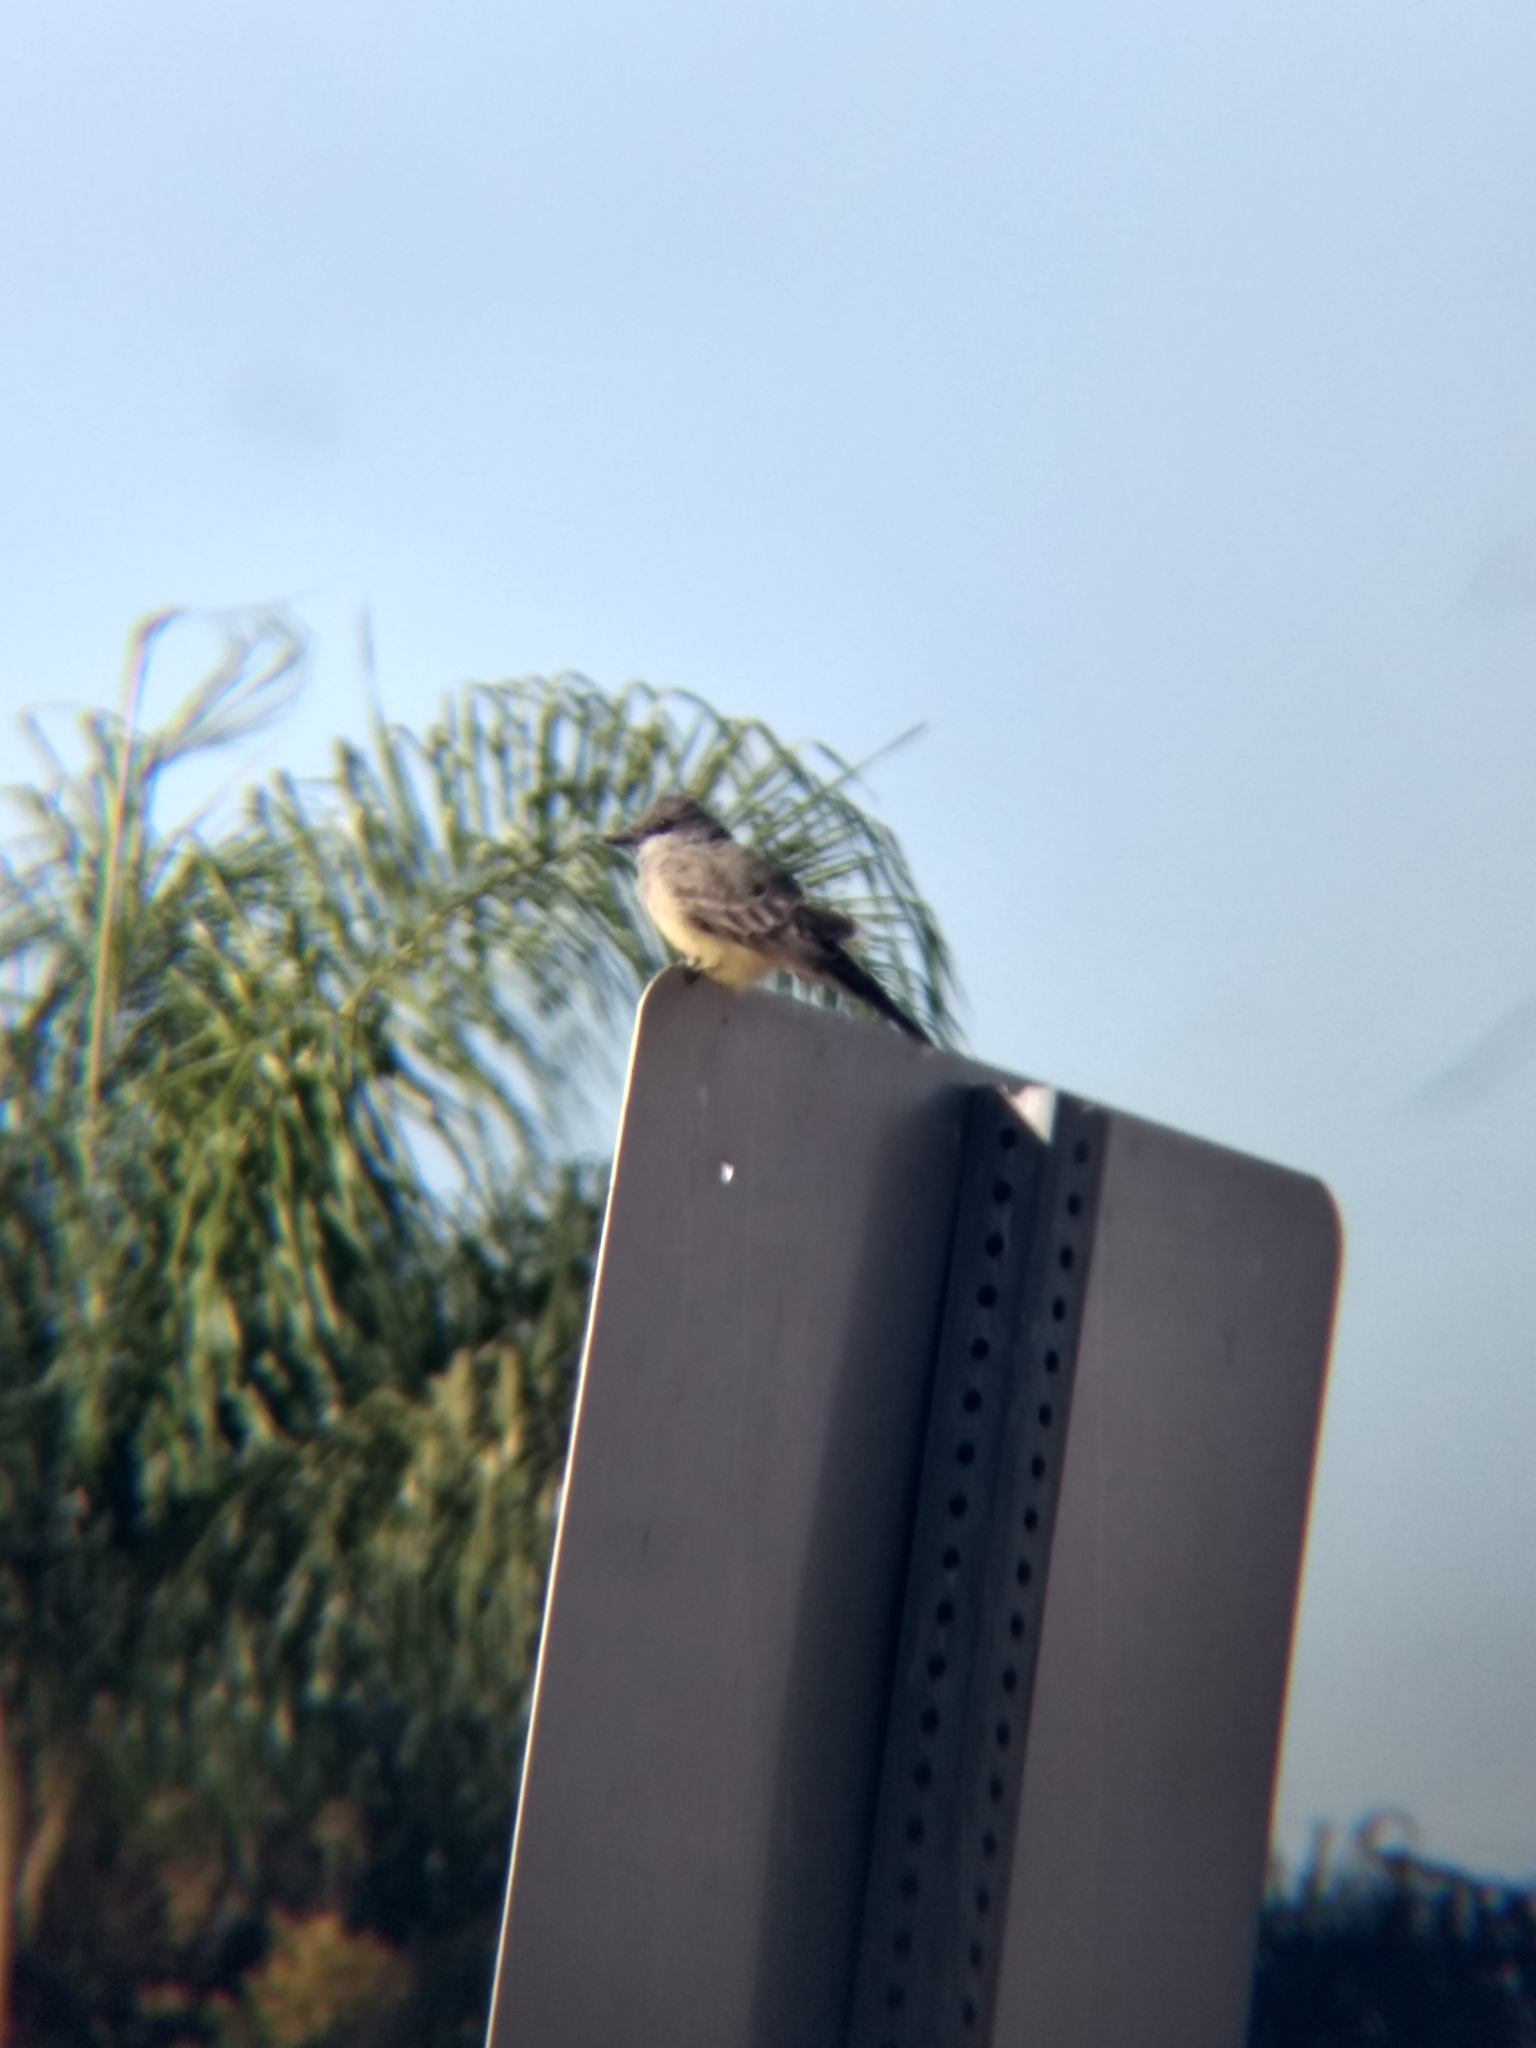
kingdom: Animalia
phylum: Chordata
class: Aves
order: Passeriformes
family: Tyrannidae
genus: Tyrannus
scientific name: Tyrannus vociferans
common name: Cassin's kingbird
